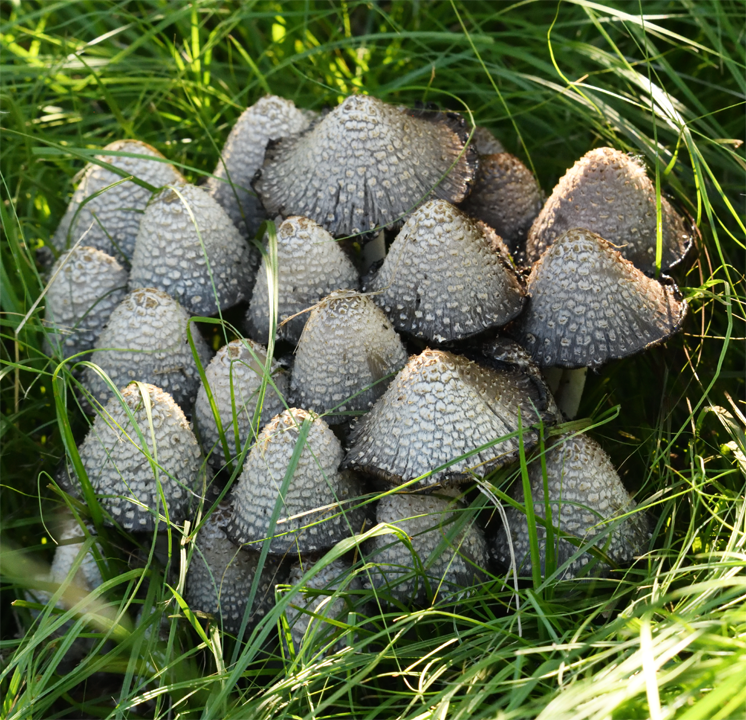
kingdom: Fungi
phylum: Basidiomycota
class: Agaricomycetes
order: Agaricales
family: Psathyrellaceae
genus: Coprinopsis
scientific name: Coprinopsis strossmayeri
